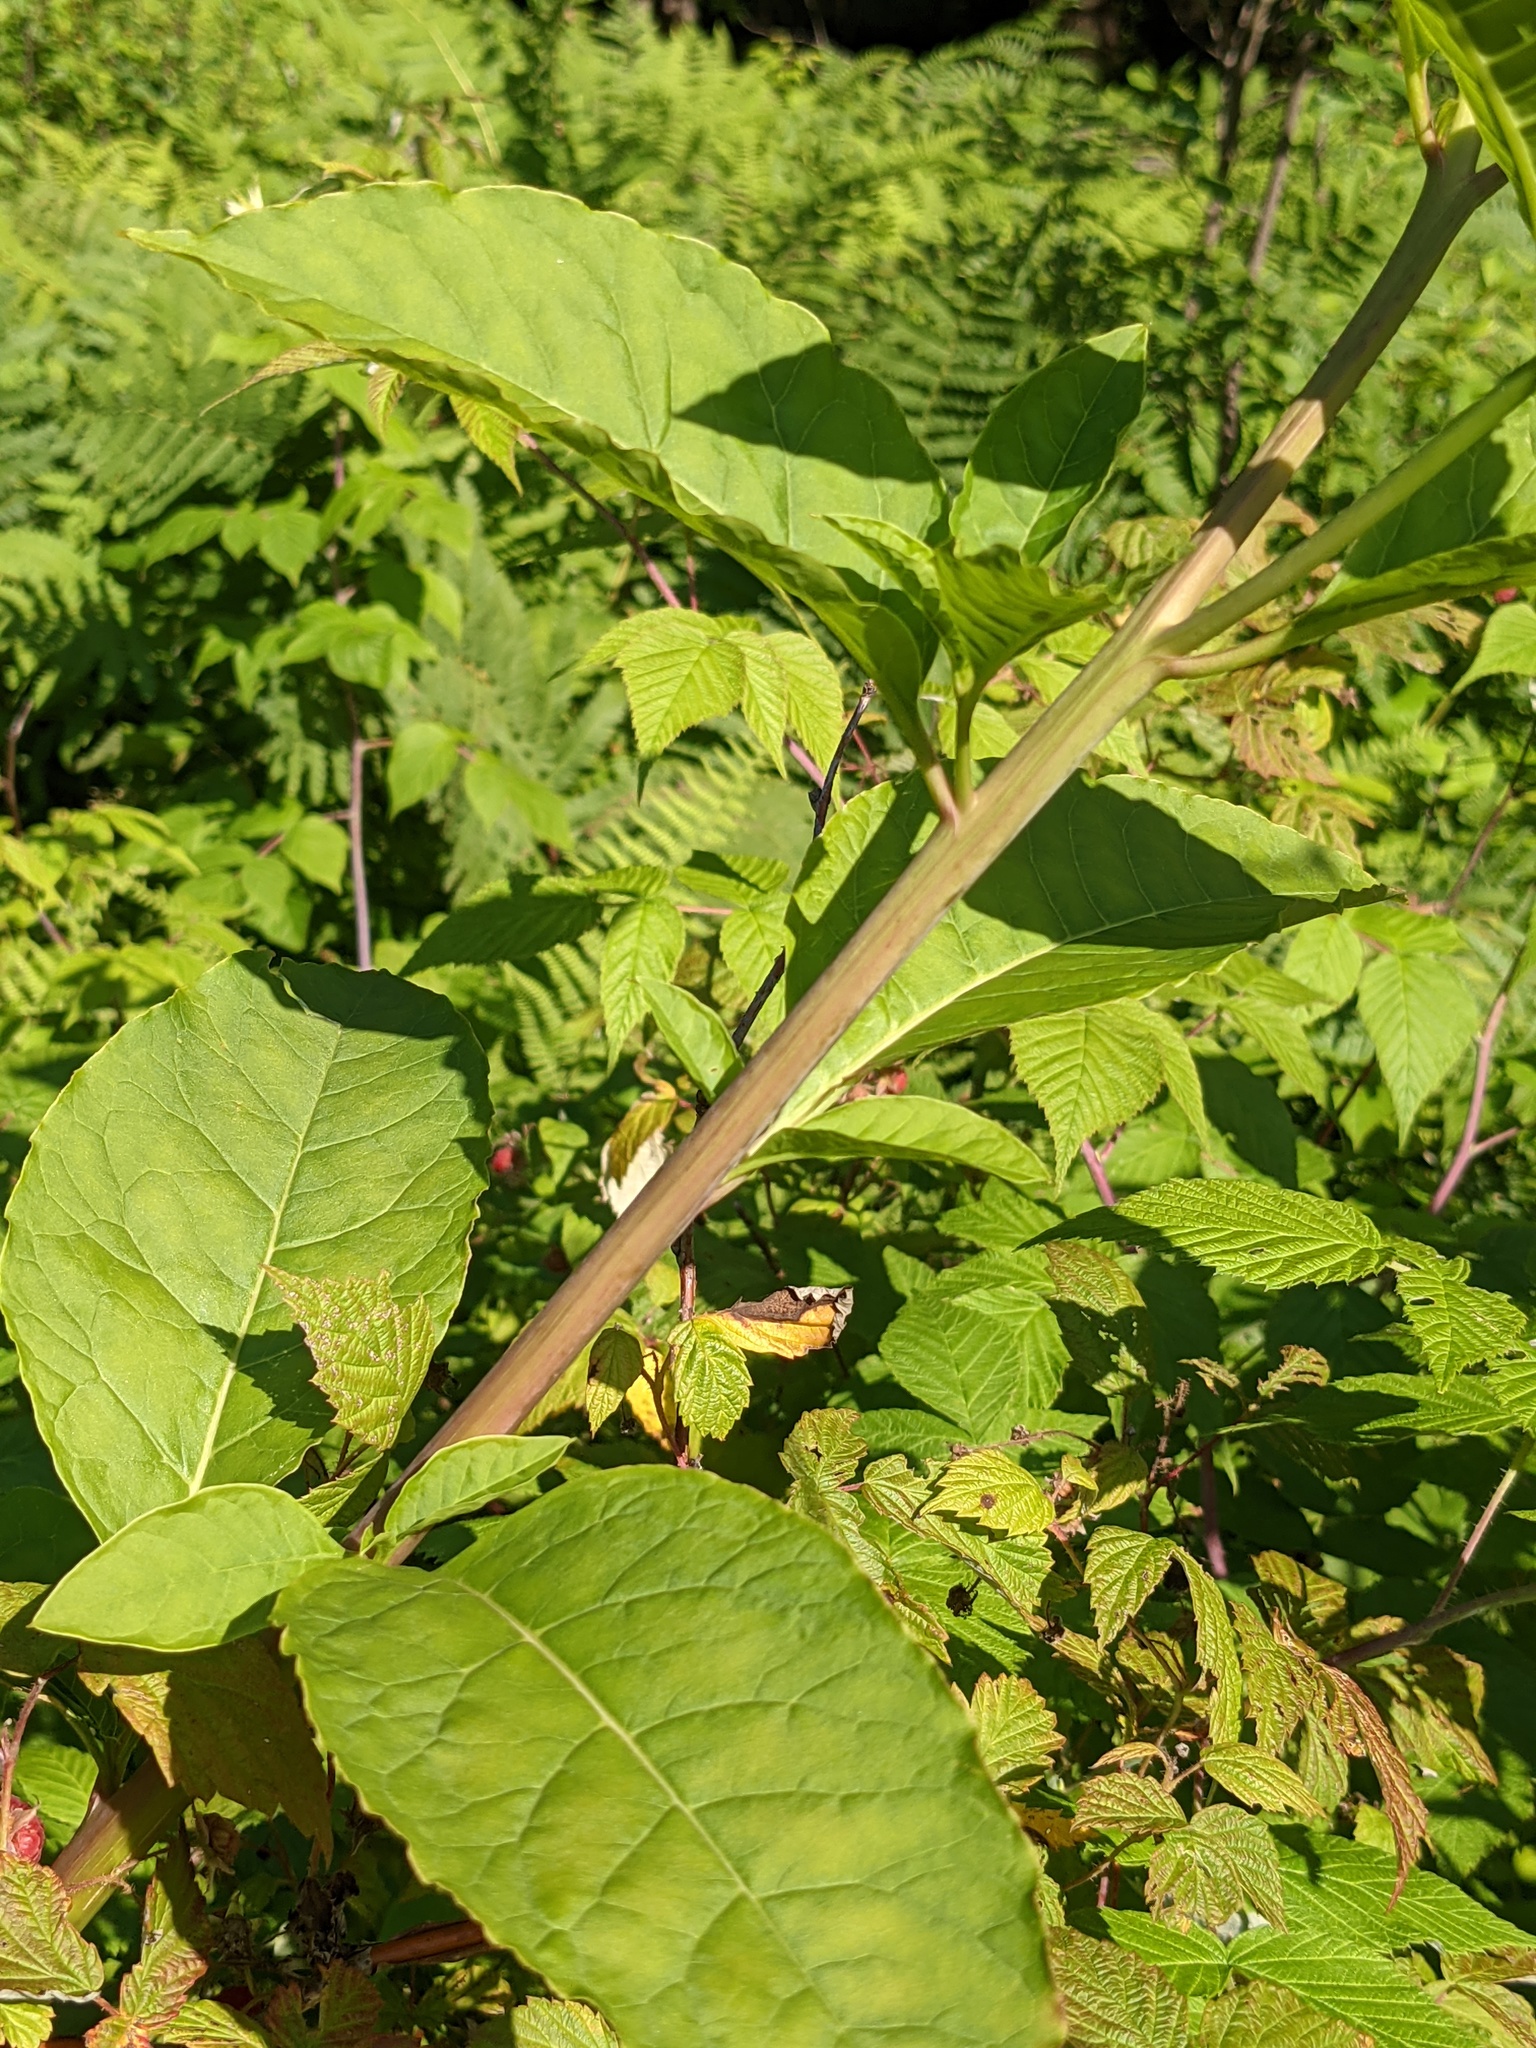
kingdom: Plantae
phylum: Tracheophyta
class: Magnoliopsida
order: Caryophyllales
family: Phytolaccaceae
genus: Phytolacca
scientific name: Phytolacca americana
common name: American pokeweed
